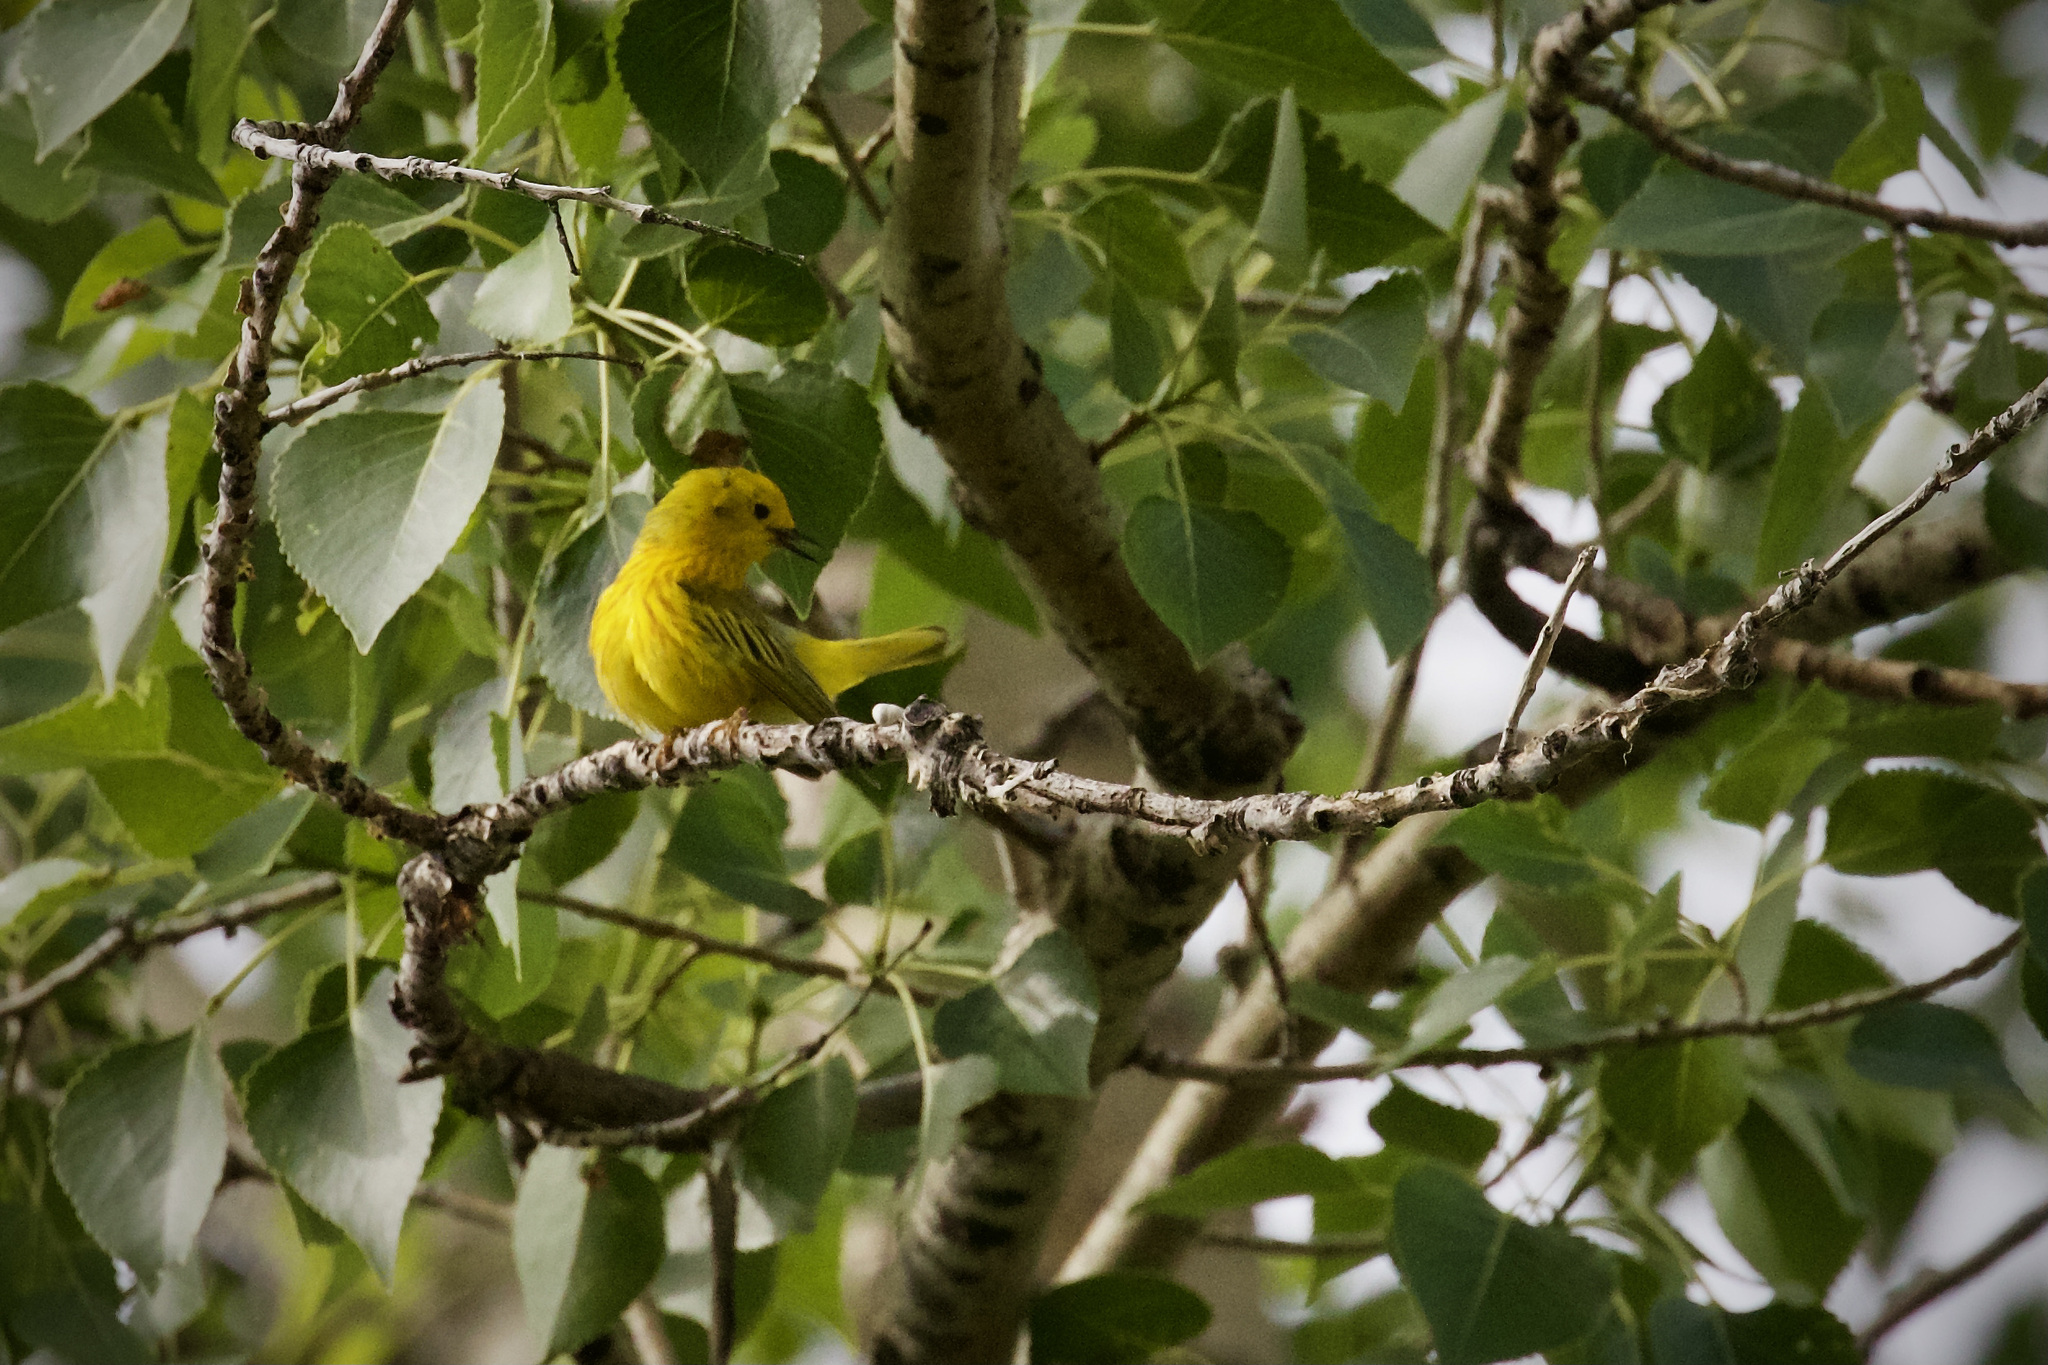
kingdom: Animalia
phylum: Chordata
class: Aves
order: Passeriformes
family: Parulidae
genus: Setophaga
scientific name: Setophaga petechia
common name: Yellow warbler
